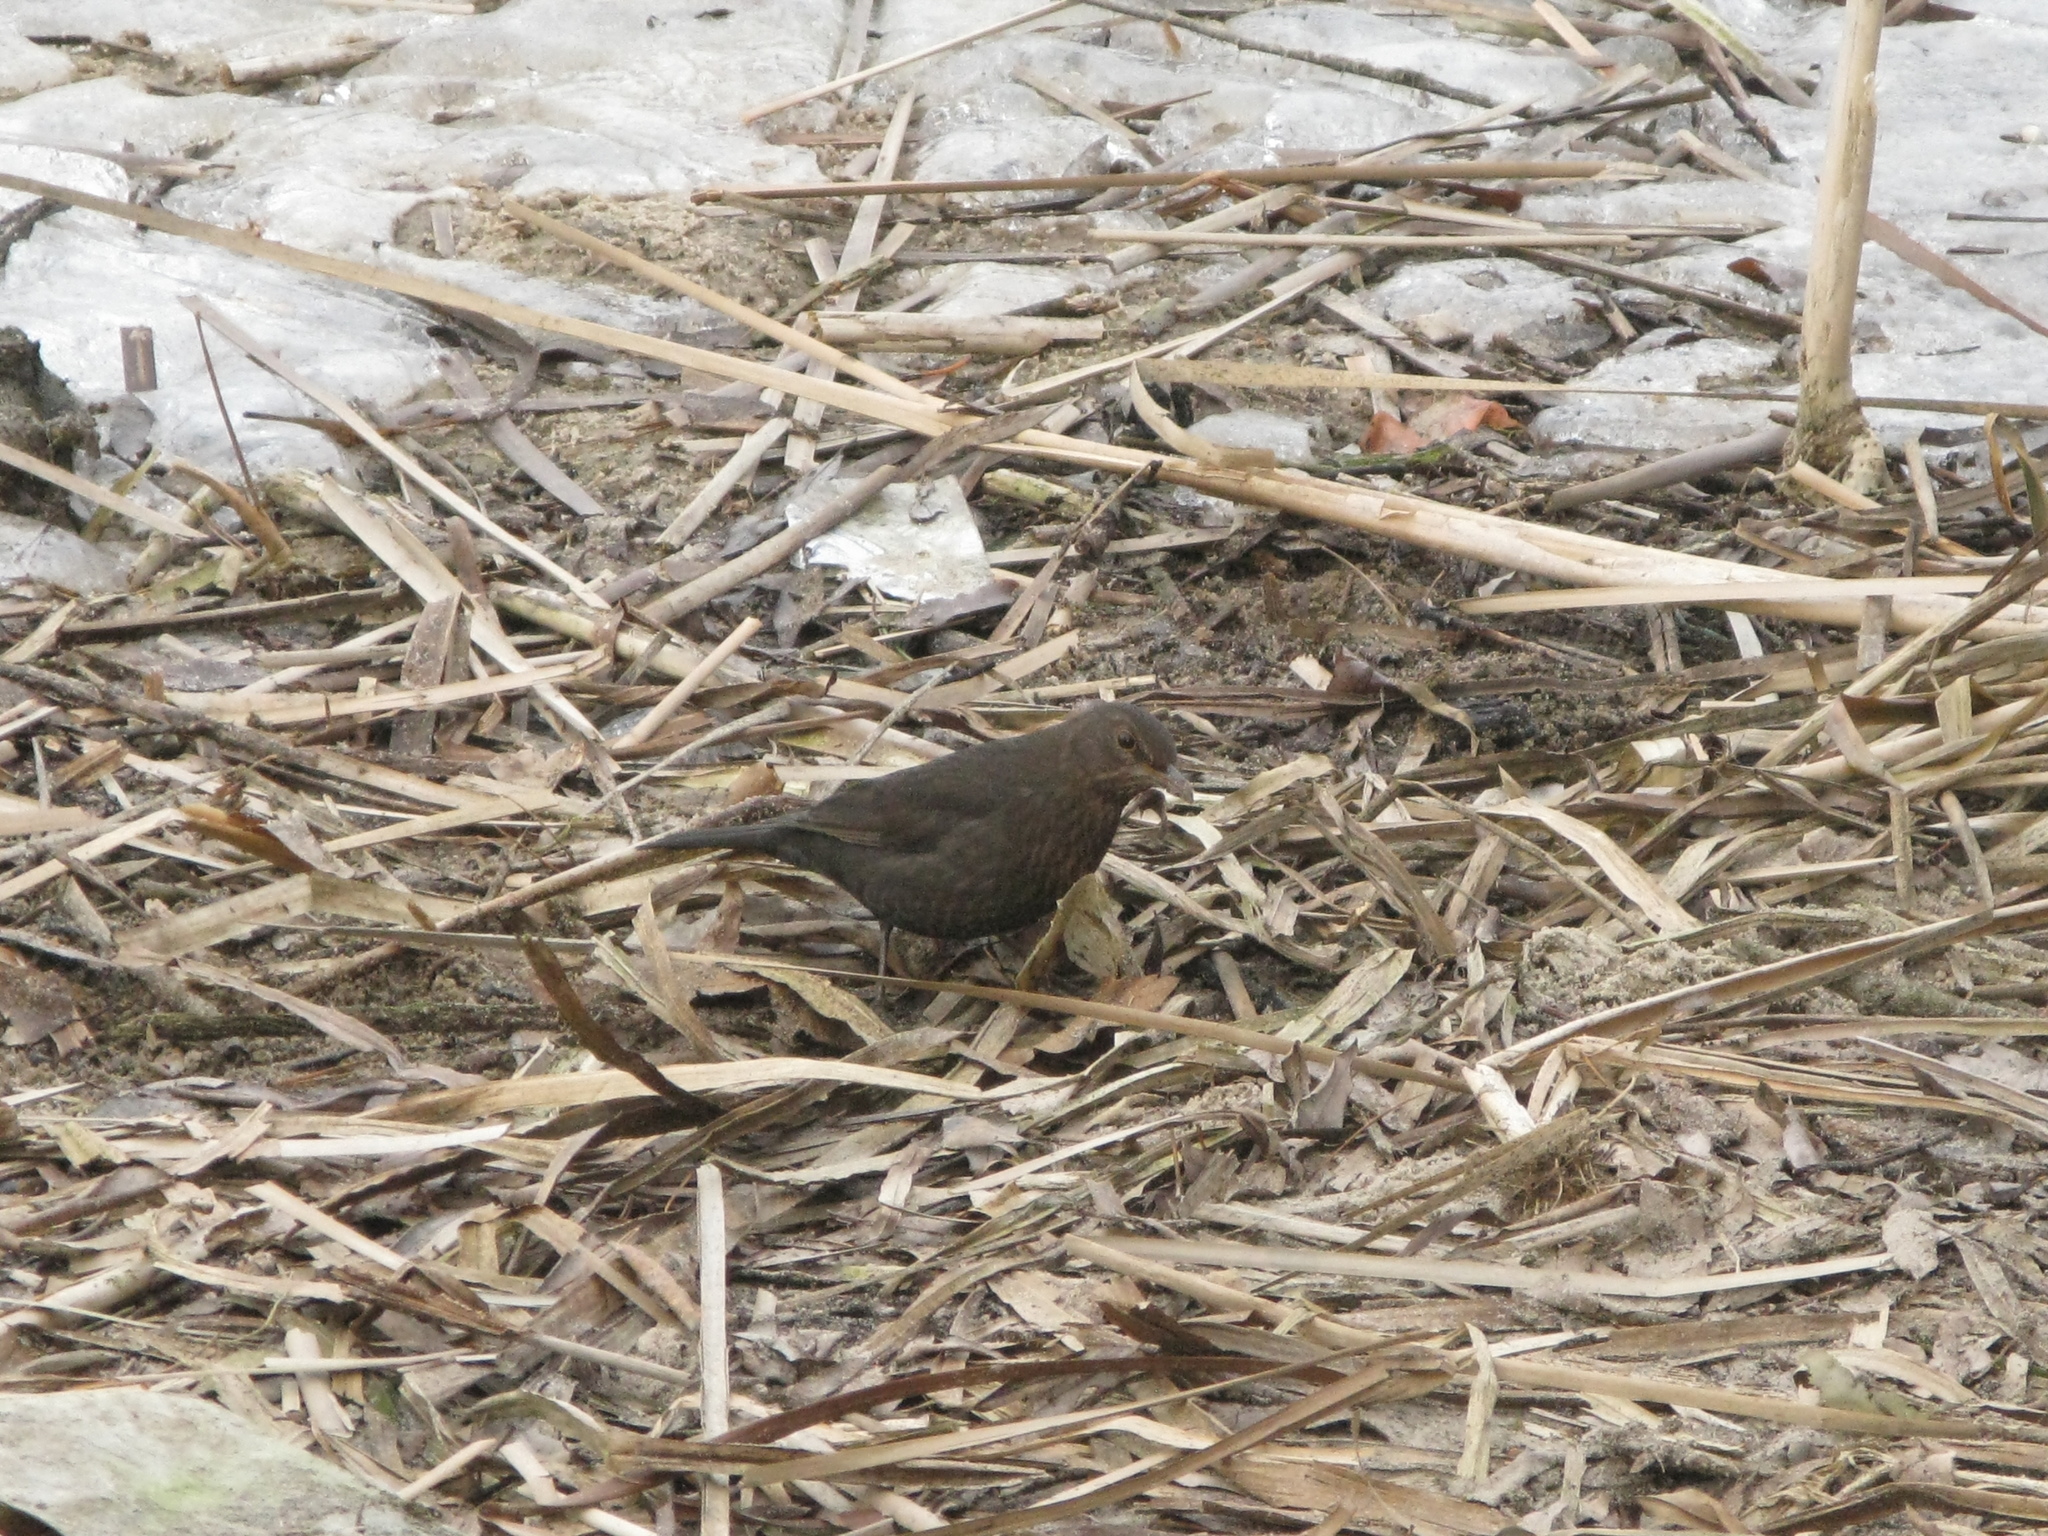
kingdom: Animalia
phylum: Chordata
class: Aves
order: Passeriformes
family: Turdidae
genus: Turdus
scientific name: Turdus merula
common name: Common blackbird
